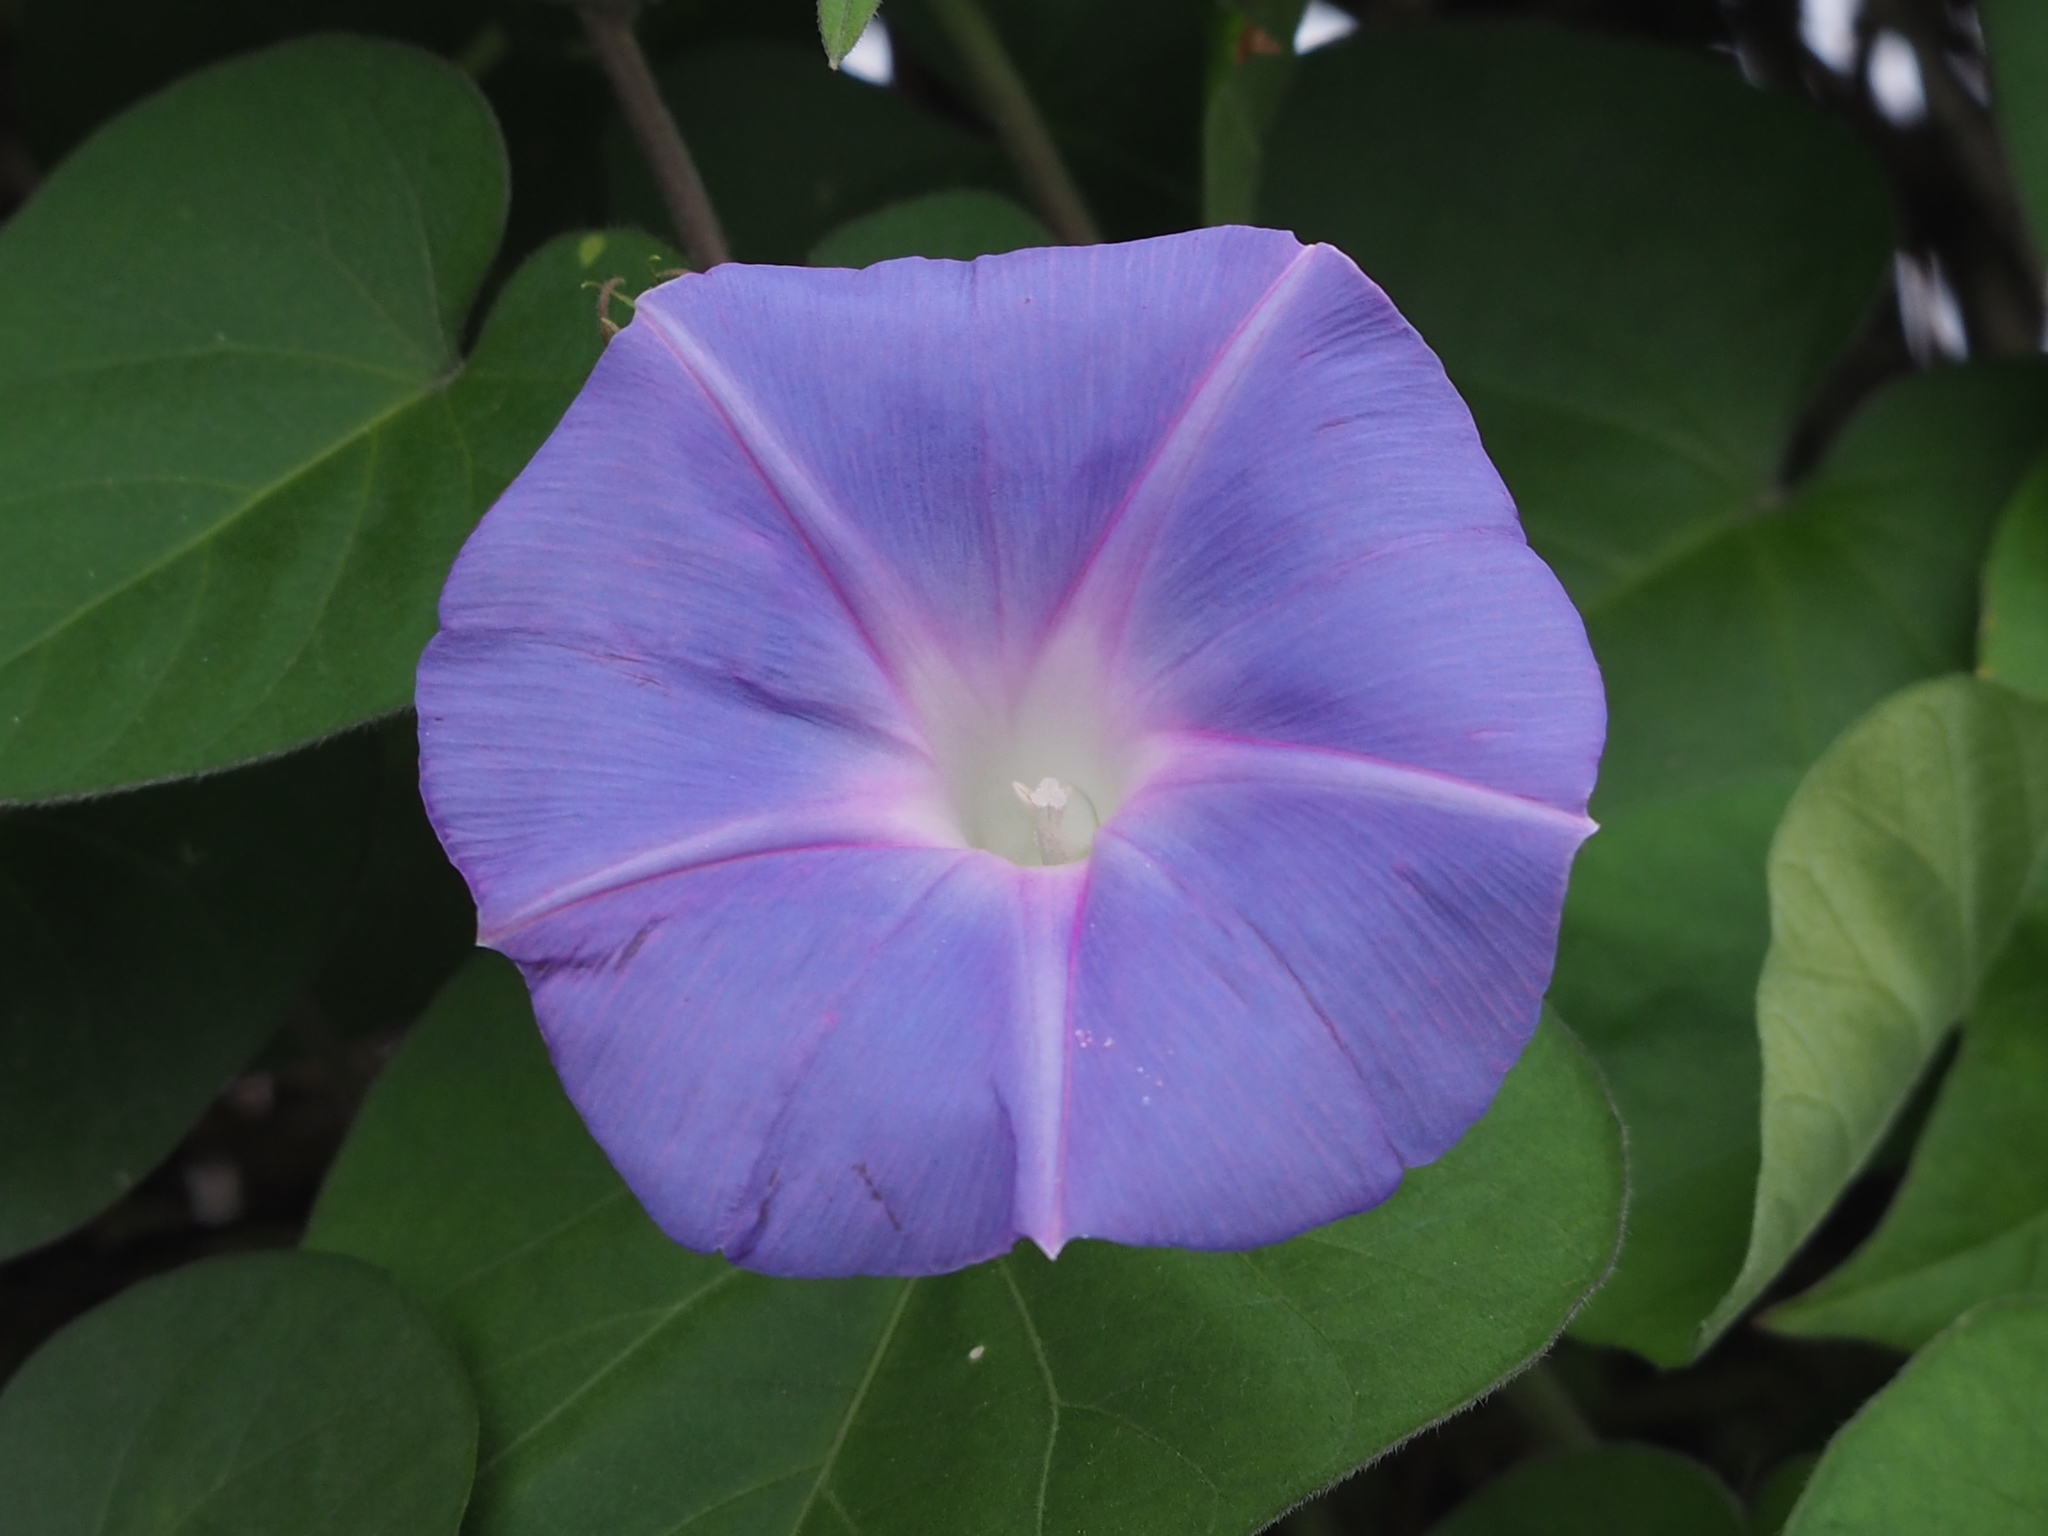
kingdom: Plantae
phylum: Tracheophyta
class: Magnoliopsida
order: Solanales
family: Convolvulaceae
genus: Ipomoea
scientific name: Ipomoea indica
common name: Blue dawnflower
